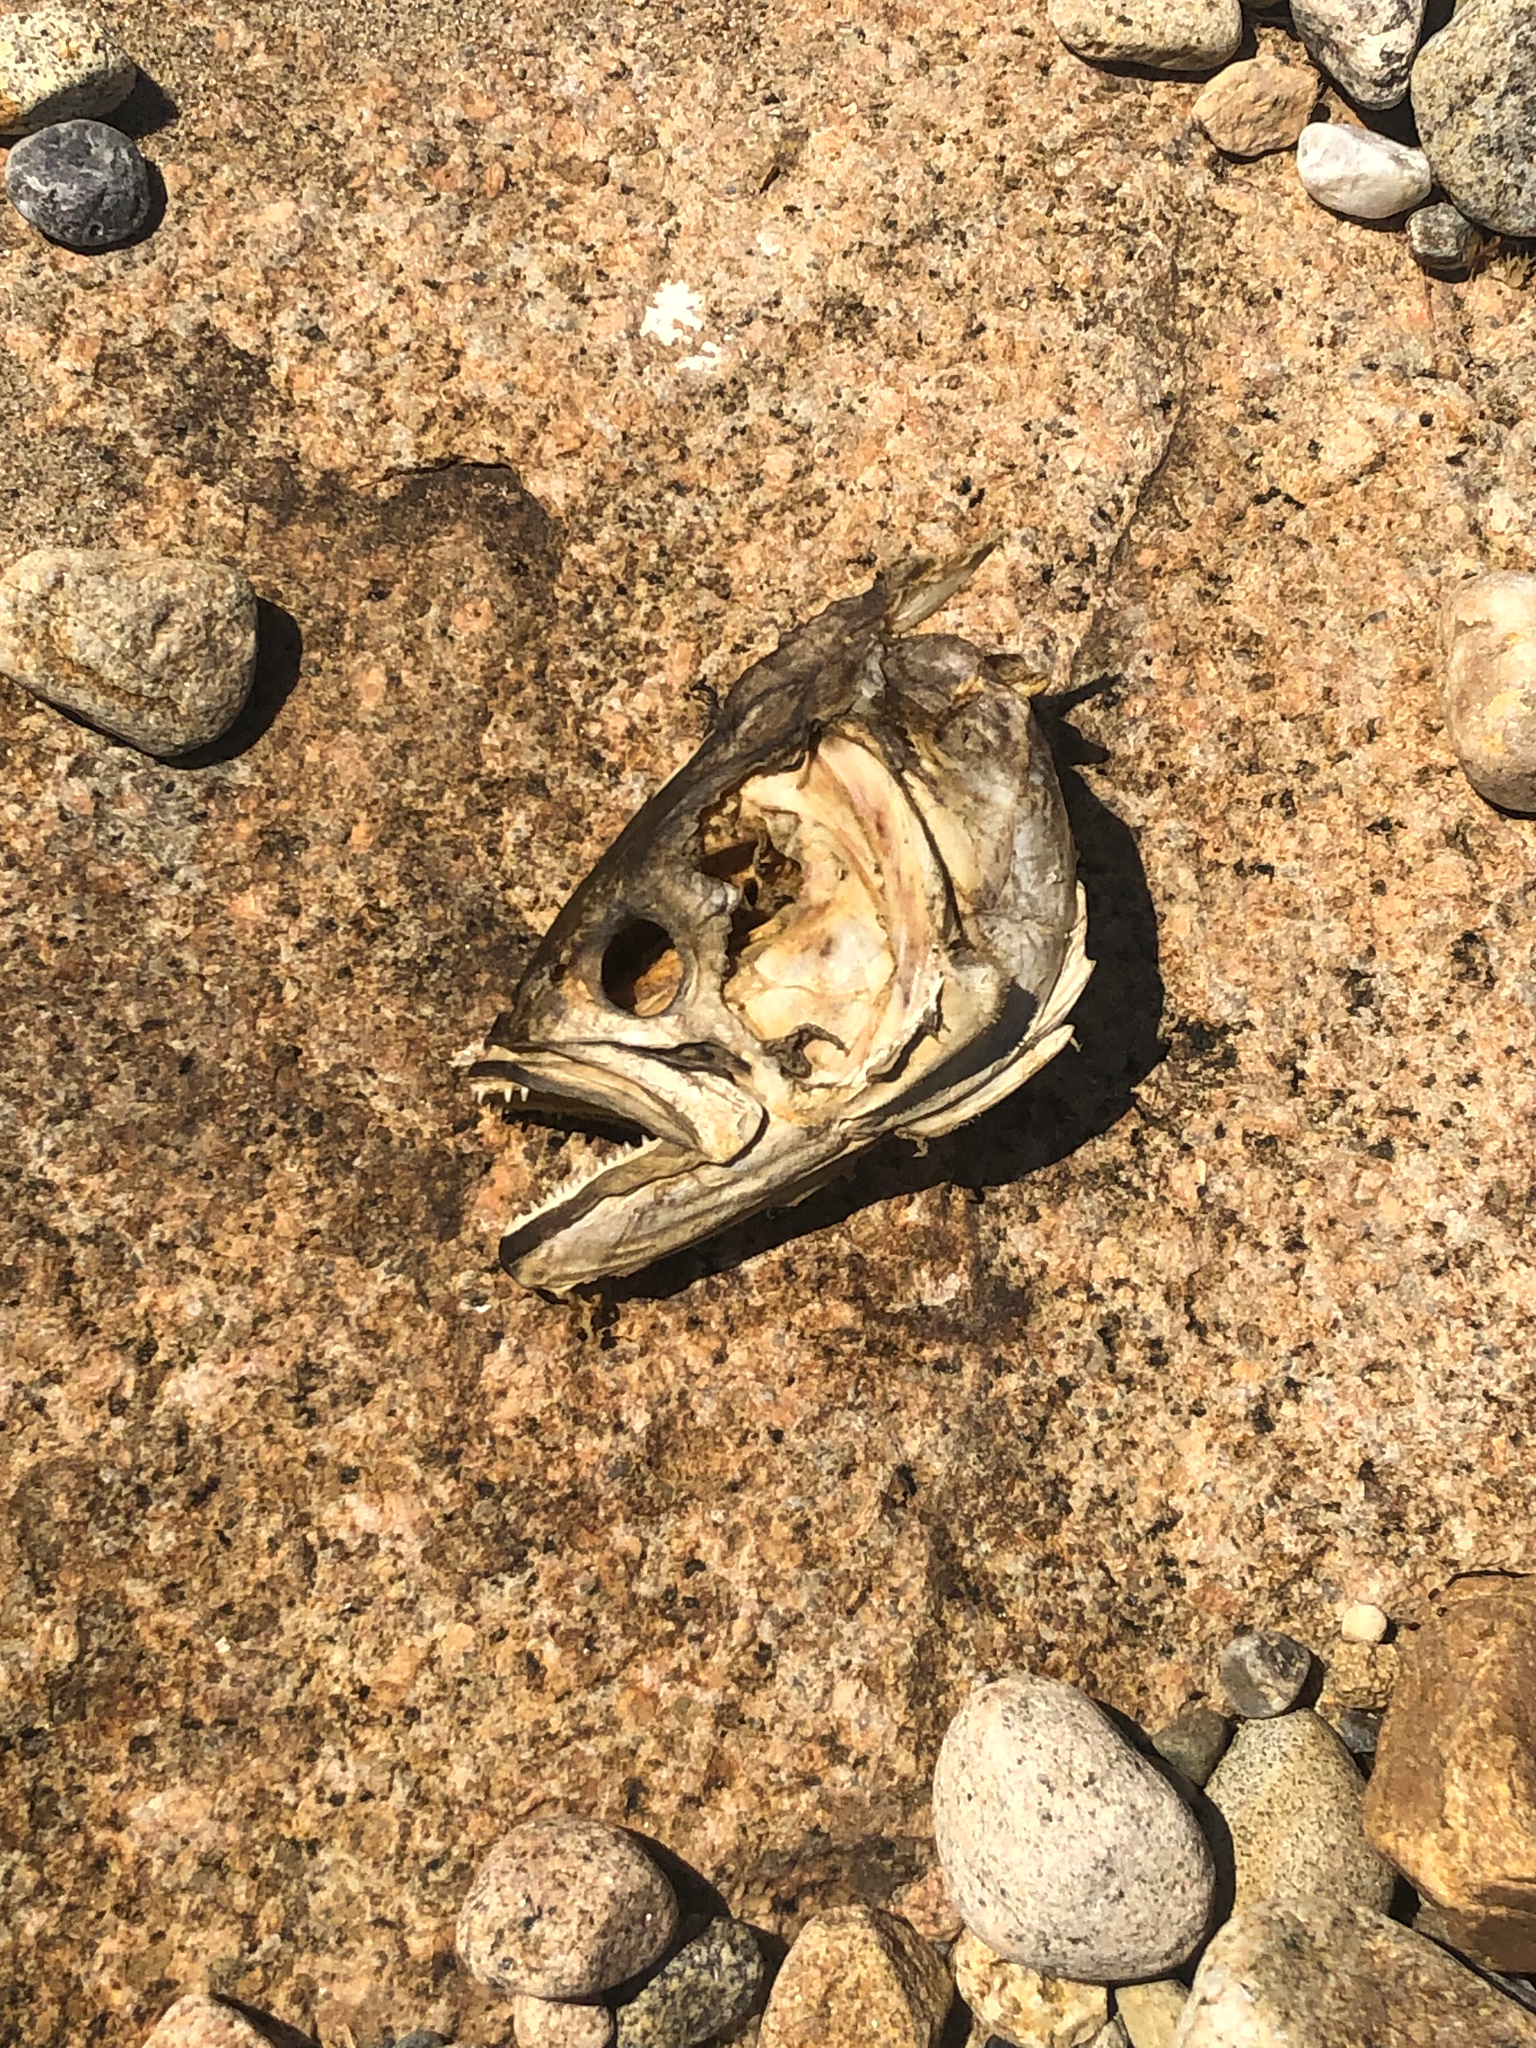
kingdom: Animalia
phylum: Chordata
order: Perciformes
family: Pomatomidae
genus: Pomatomus
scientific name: Pomatomus saltatrix
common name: Bluefish
